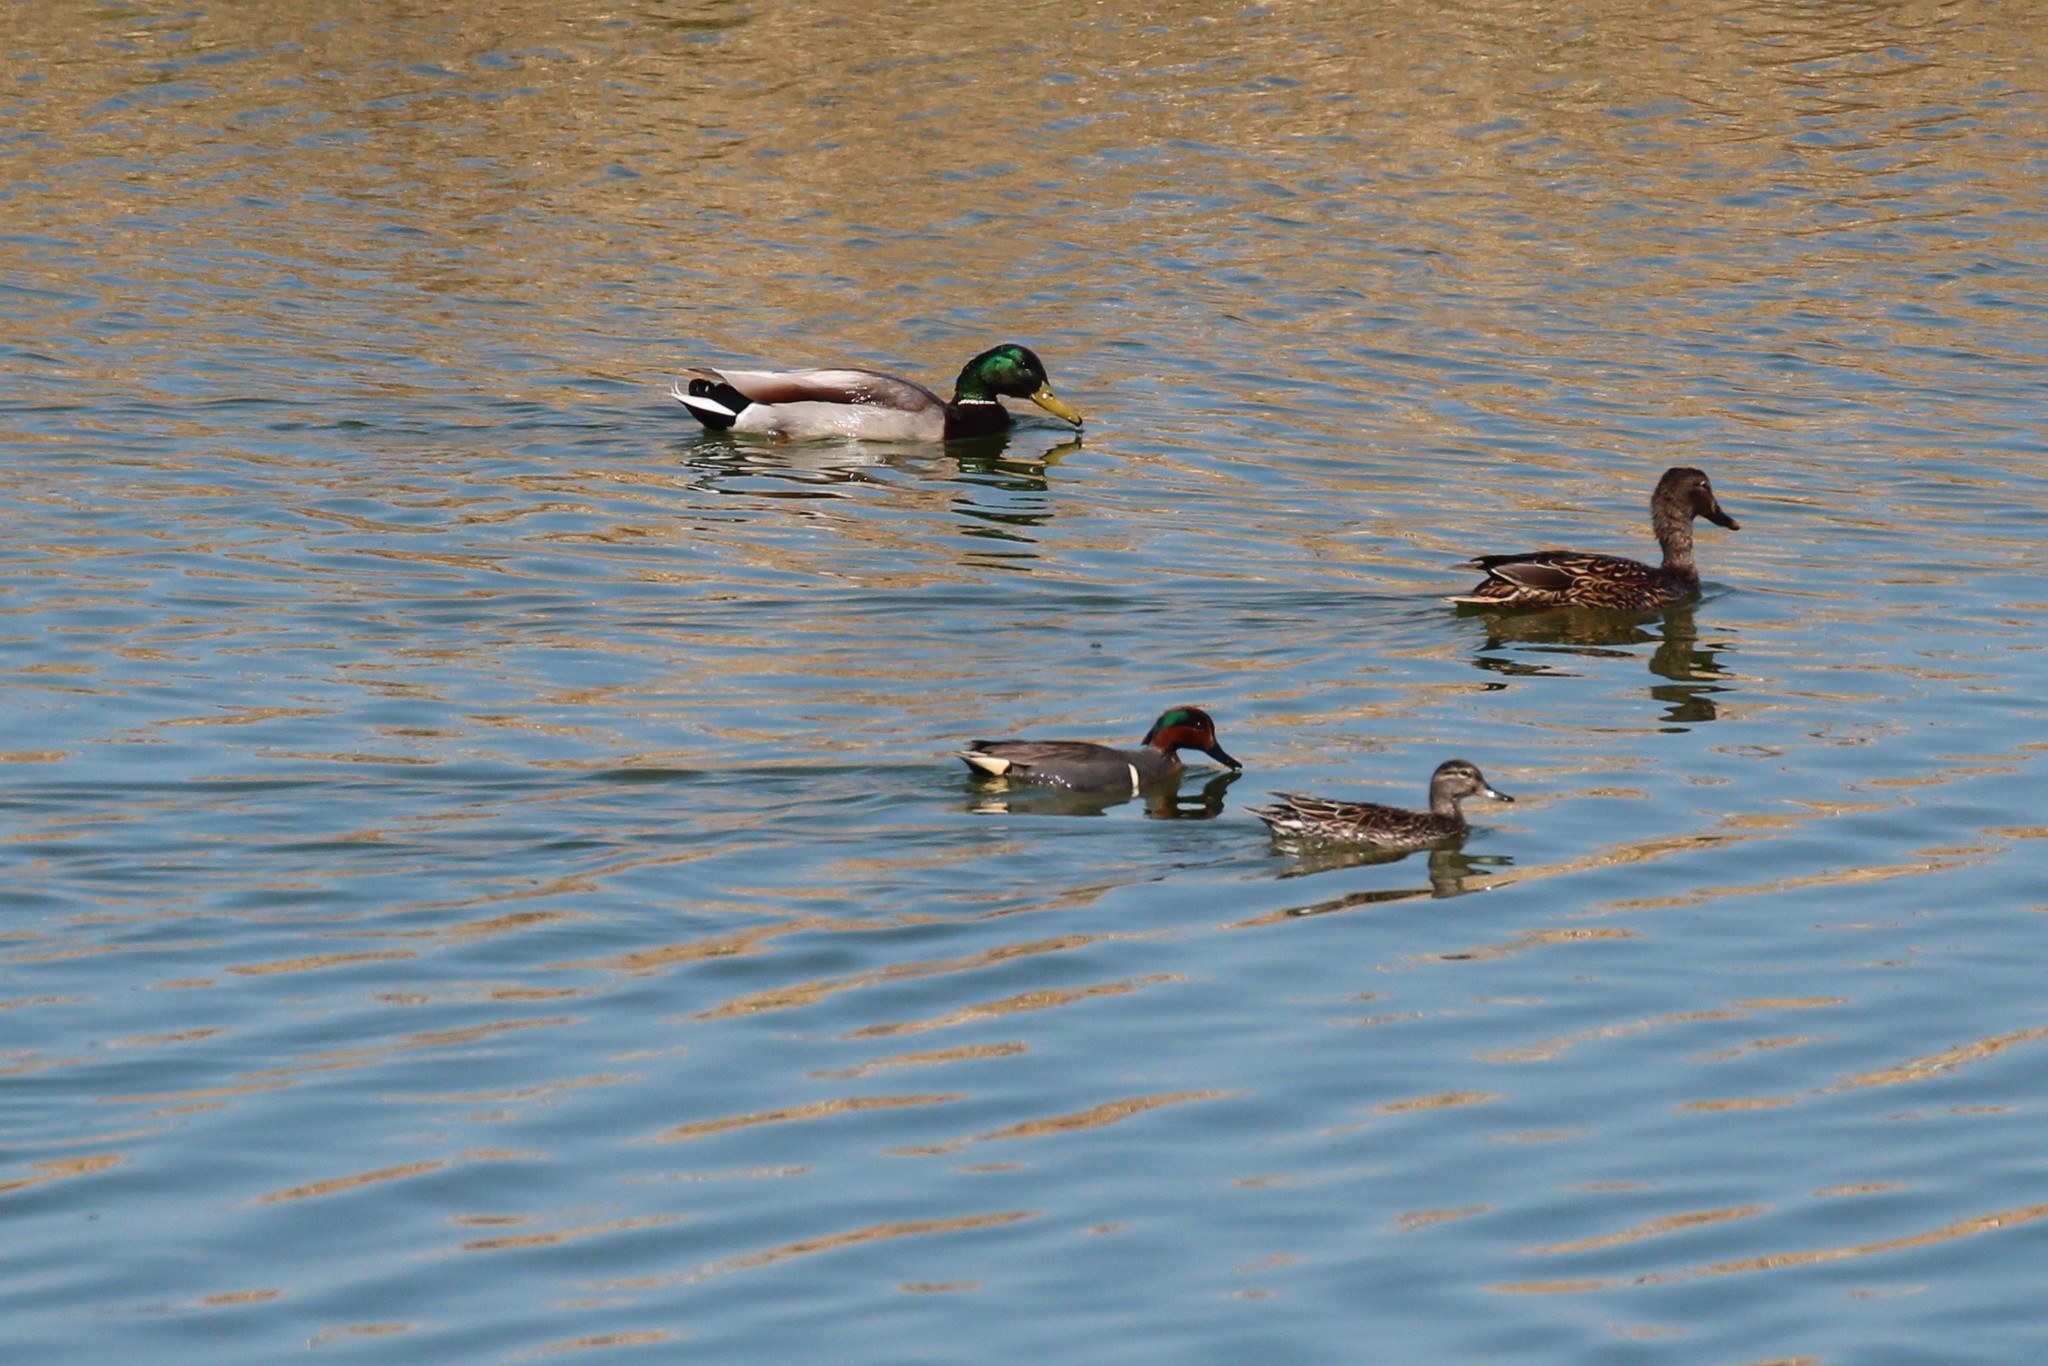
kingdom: Animalia
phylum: Chordata
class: Aves
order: Anseriformes
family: Anatidae
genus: Anas
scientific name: Anas crecca
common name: Eurasian teal
